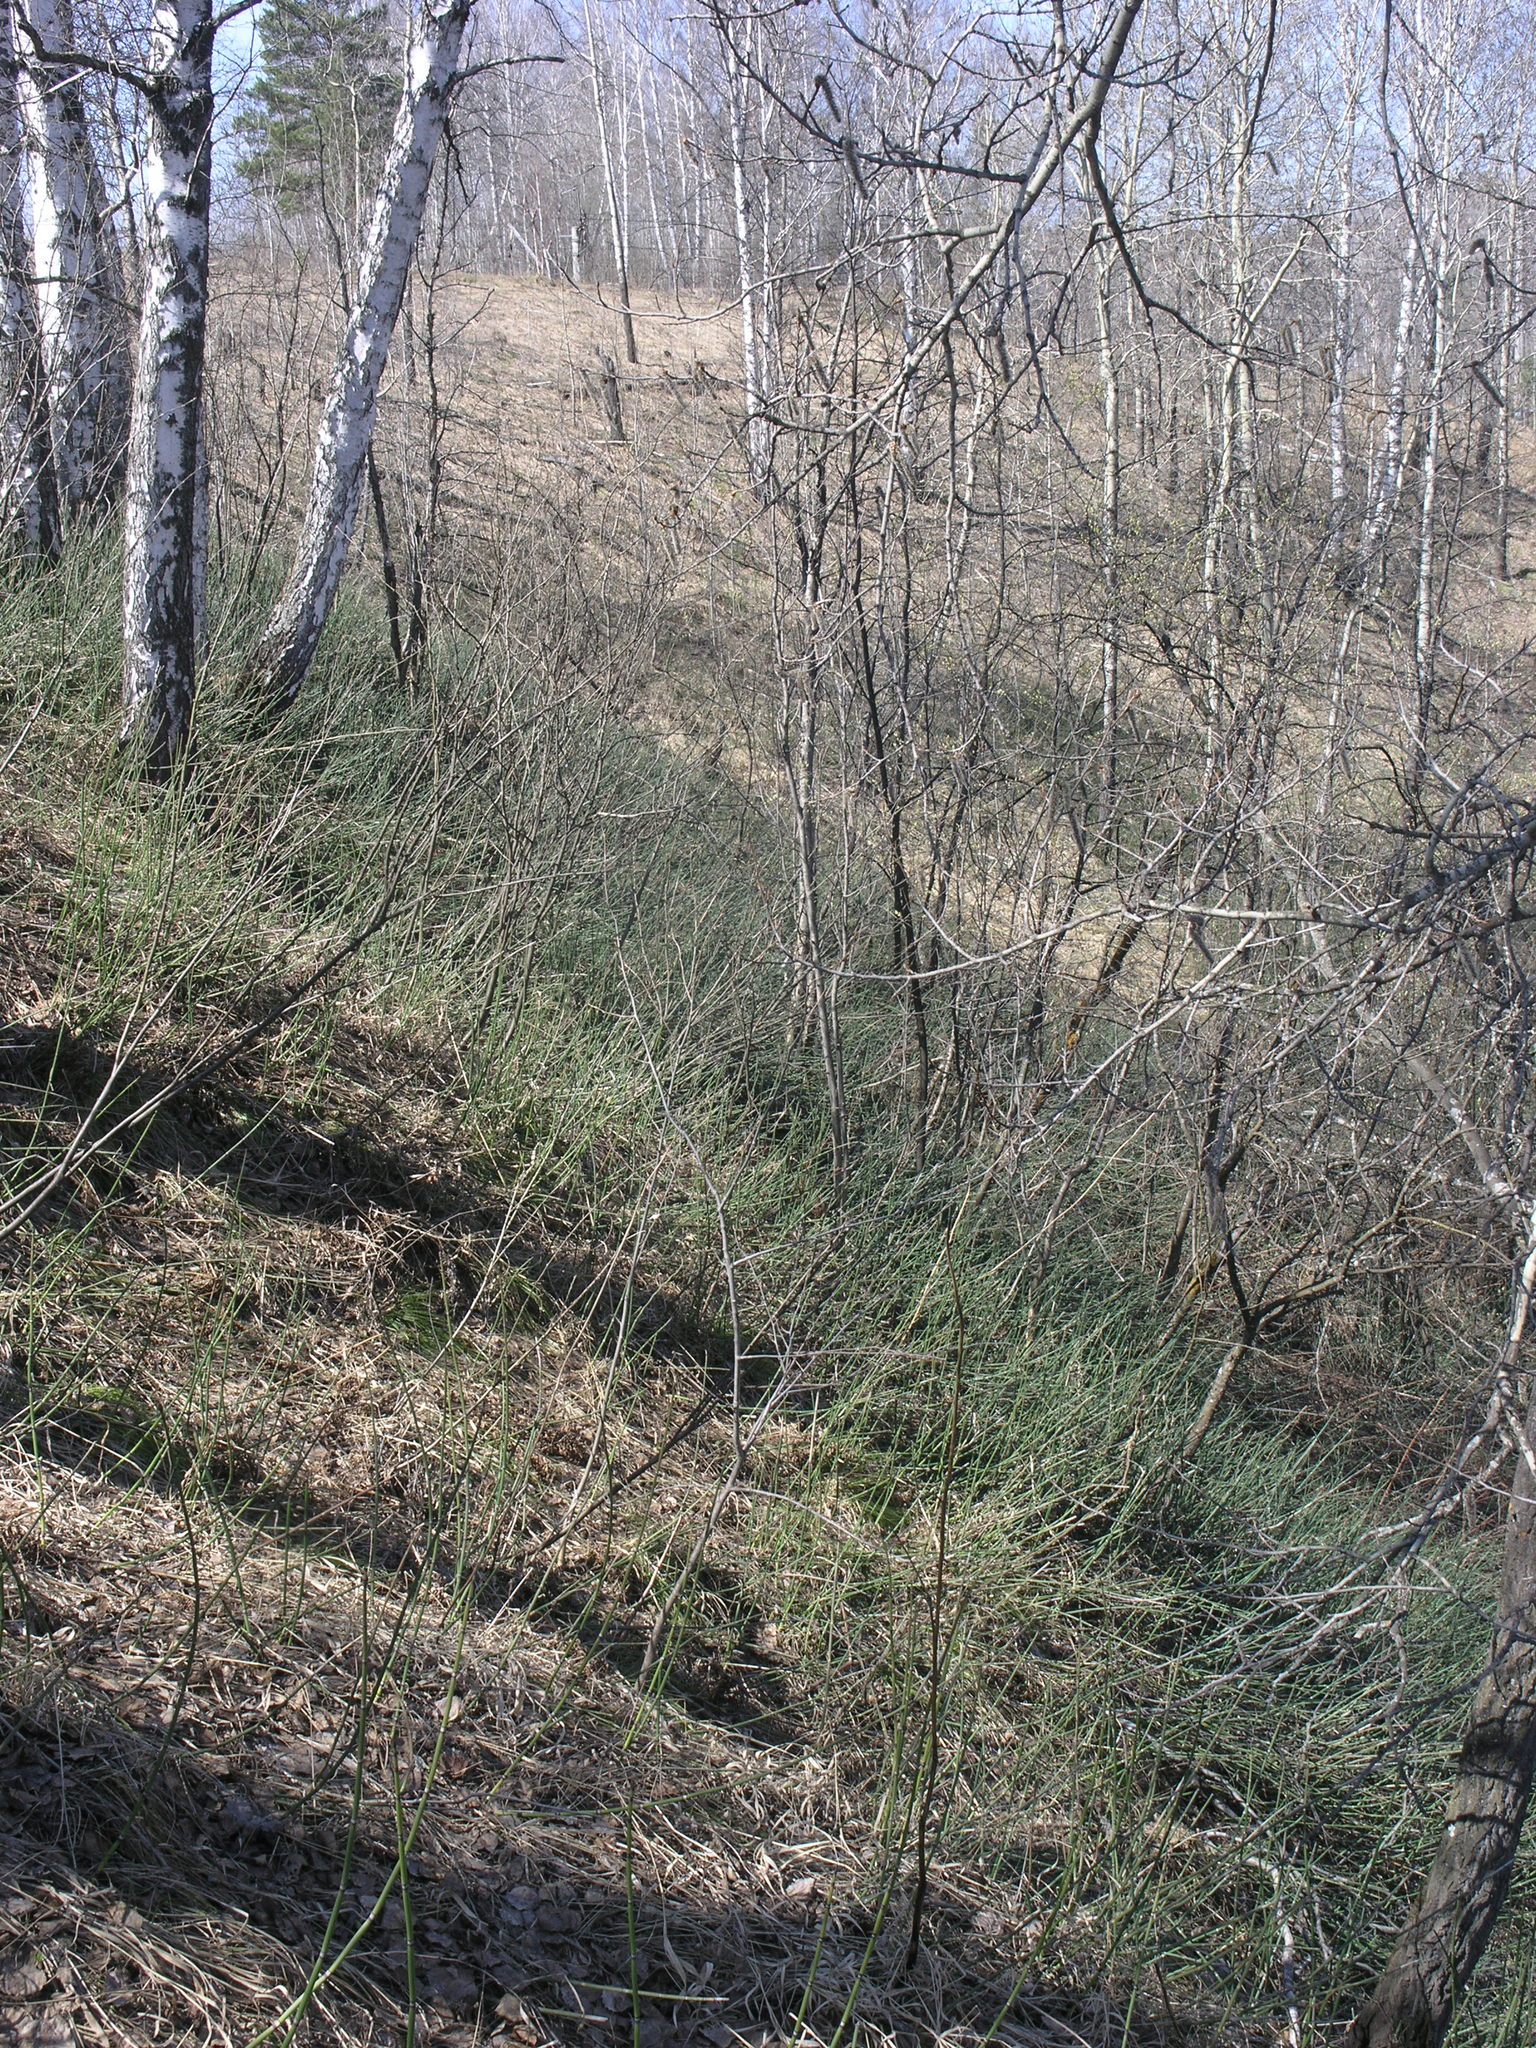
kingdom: Plantae
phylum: Tracheophyta
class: Polypodiopsida
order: Equisetales
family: Equisetaceae
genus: Equisetum
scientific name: Equisetum hyemale
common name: Rough horsetail
